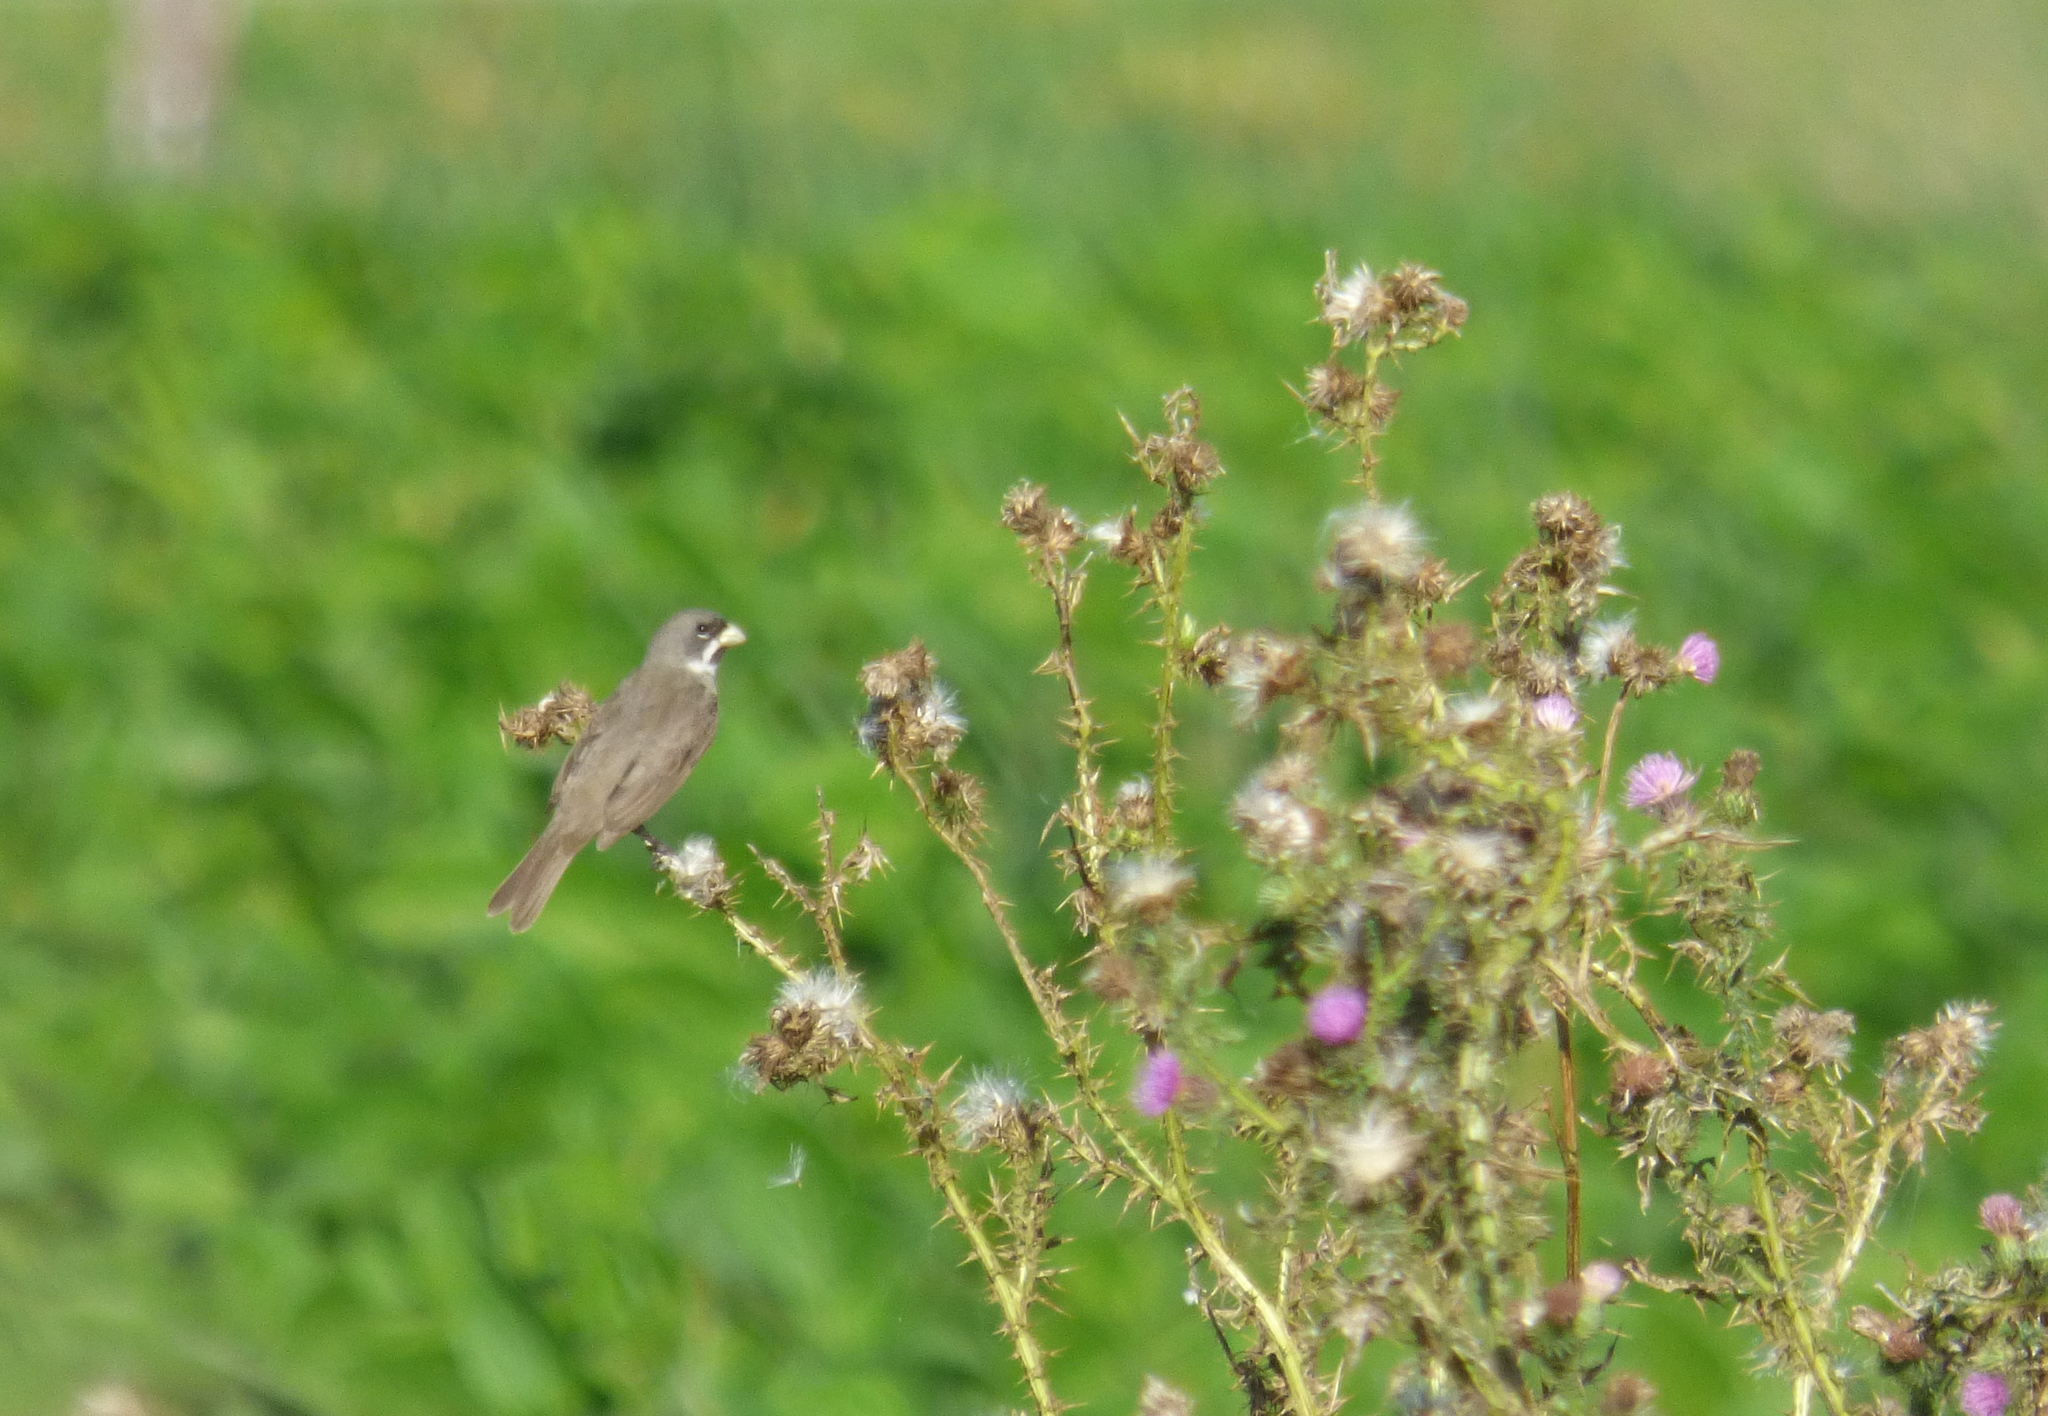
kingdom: Animalia
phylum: Chordata
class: Aves
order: Passeriformes
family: Thraupidae
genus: Sporophila
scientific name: Sporophila caerulescens
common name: Double-collared seedeater
